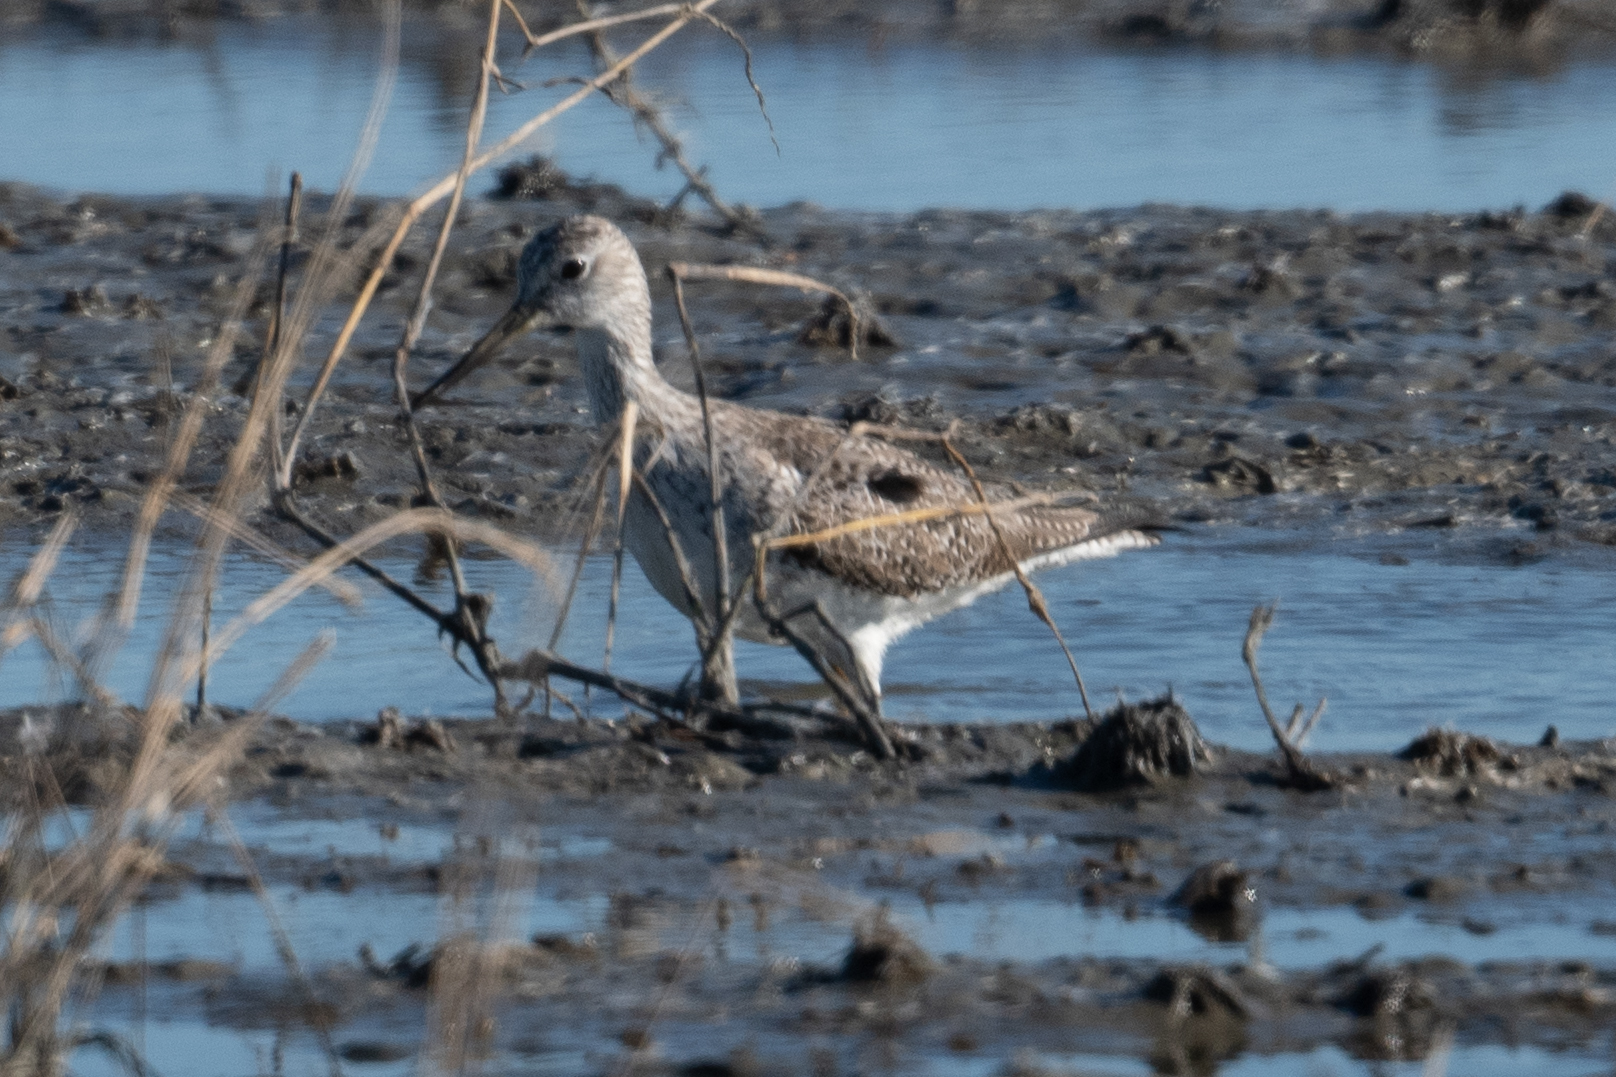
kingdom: Animalia
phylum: Chordata
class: Aves
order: Charadriiformes
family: Scolopacidae
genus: Tringa
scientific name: Tringa melanoleuca
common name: Greater yellowlegs
